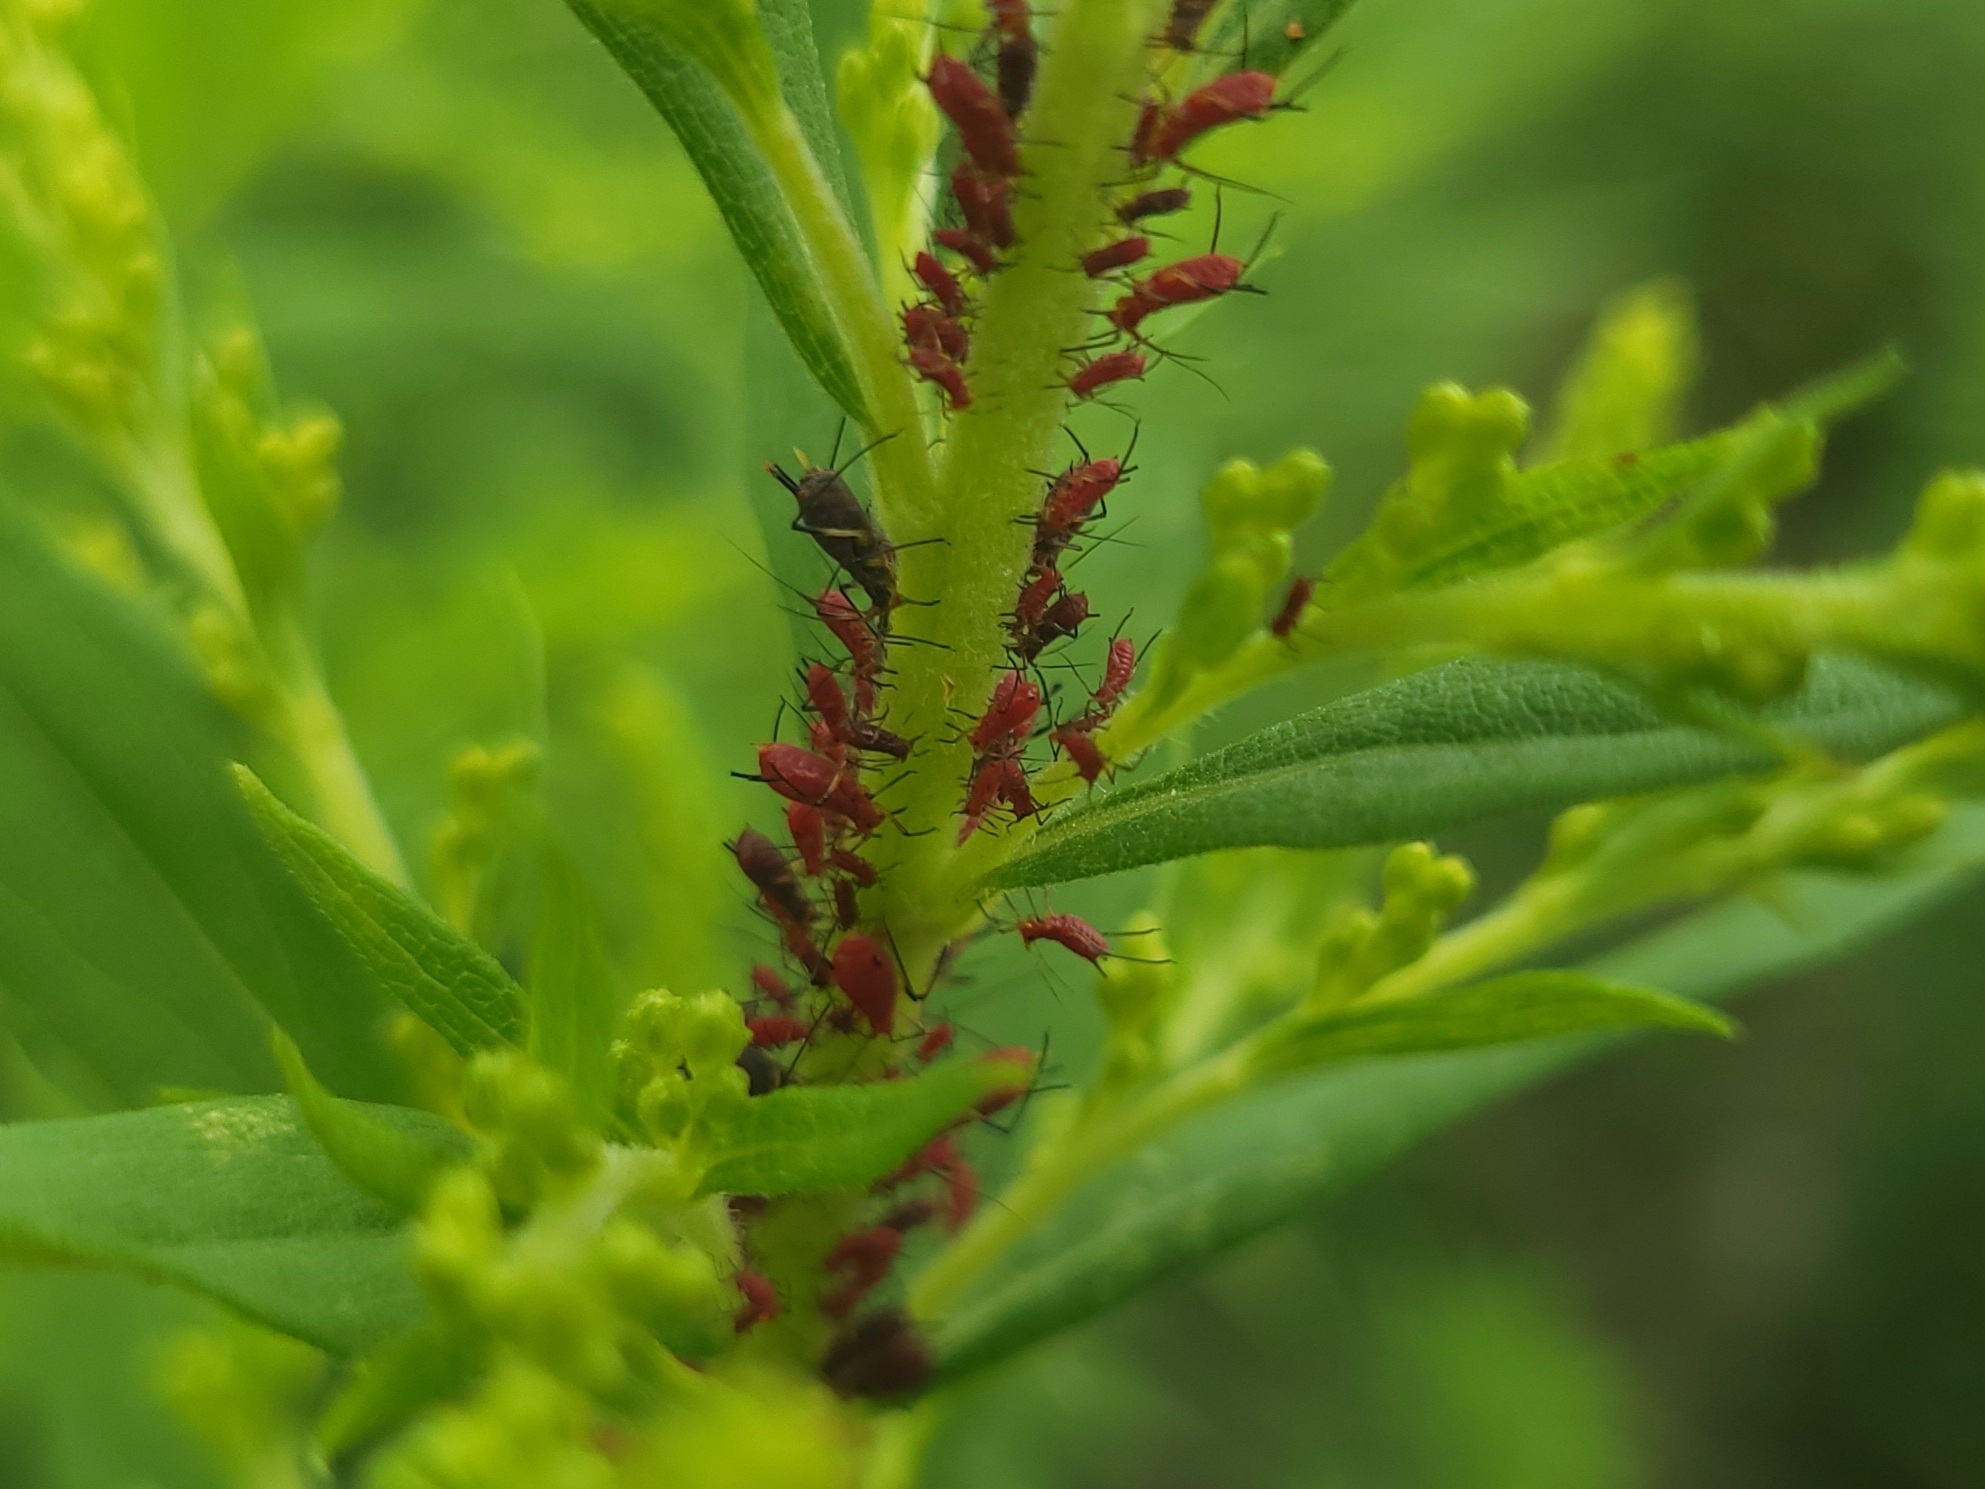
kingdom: Animalia
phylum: Arthropoda
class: Insecta
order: Hemiptera
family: Aphididae
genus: Uroleucon
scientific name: Uroleucon
